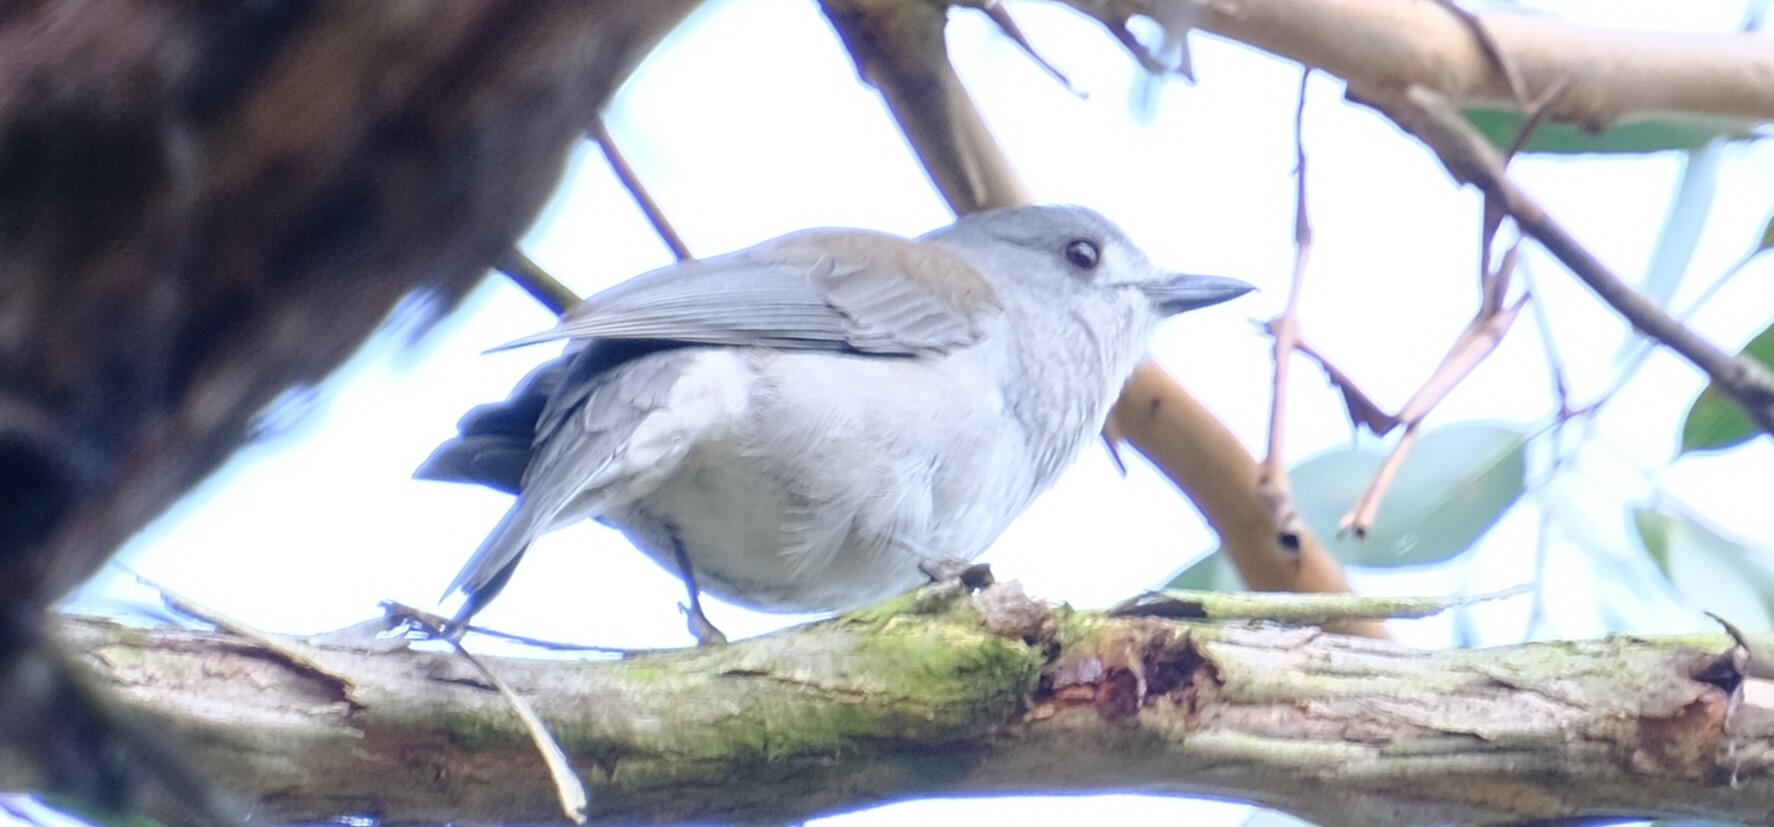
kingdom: Animalia
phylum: Chordata
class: Aves
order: Passeriformes
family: Pachycephalidae
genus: Colluricincla
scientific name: Colluricincla harmonica
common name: Grey shrikethrush
